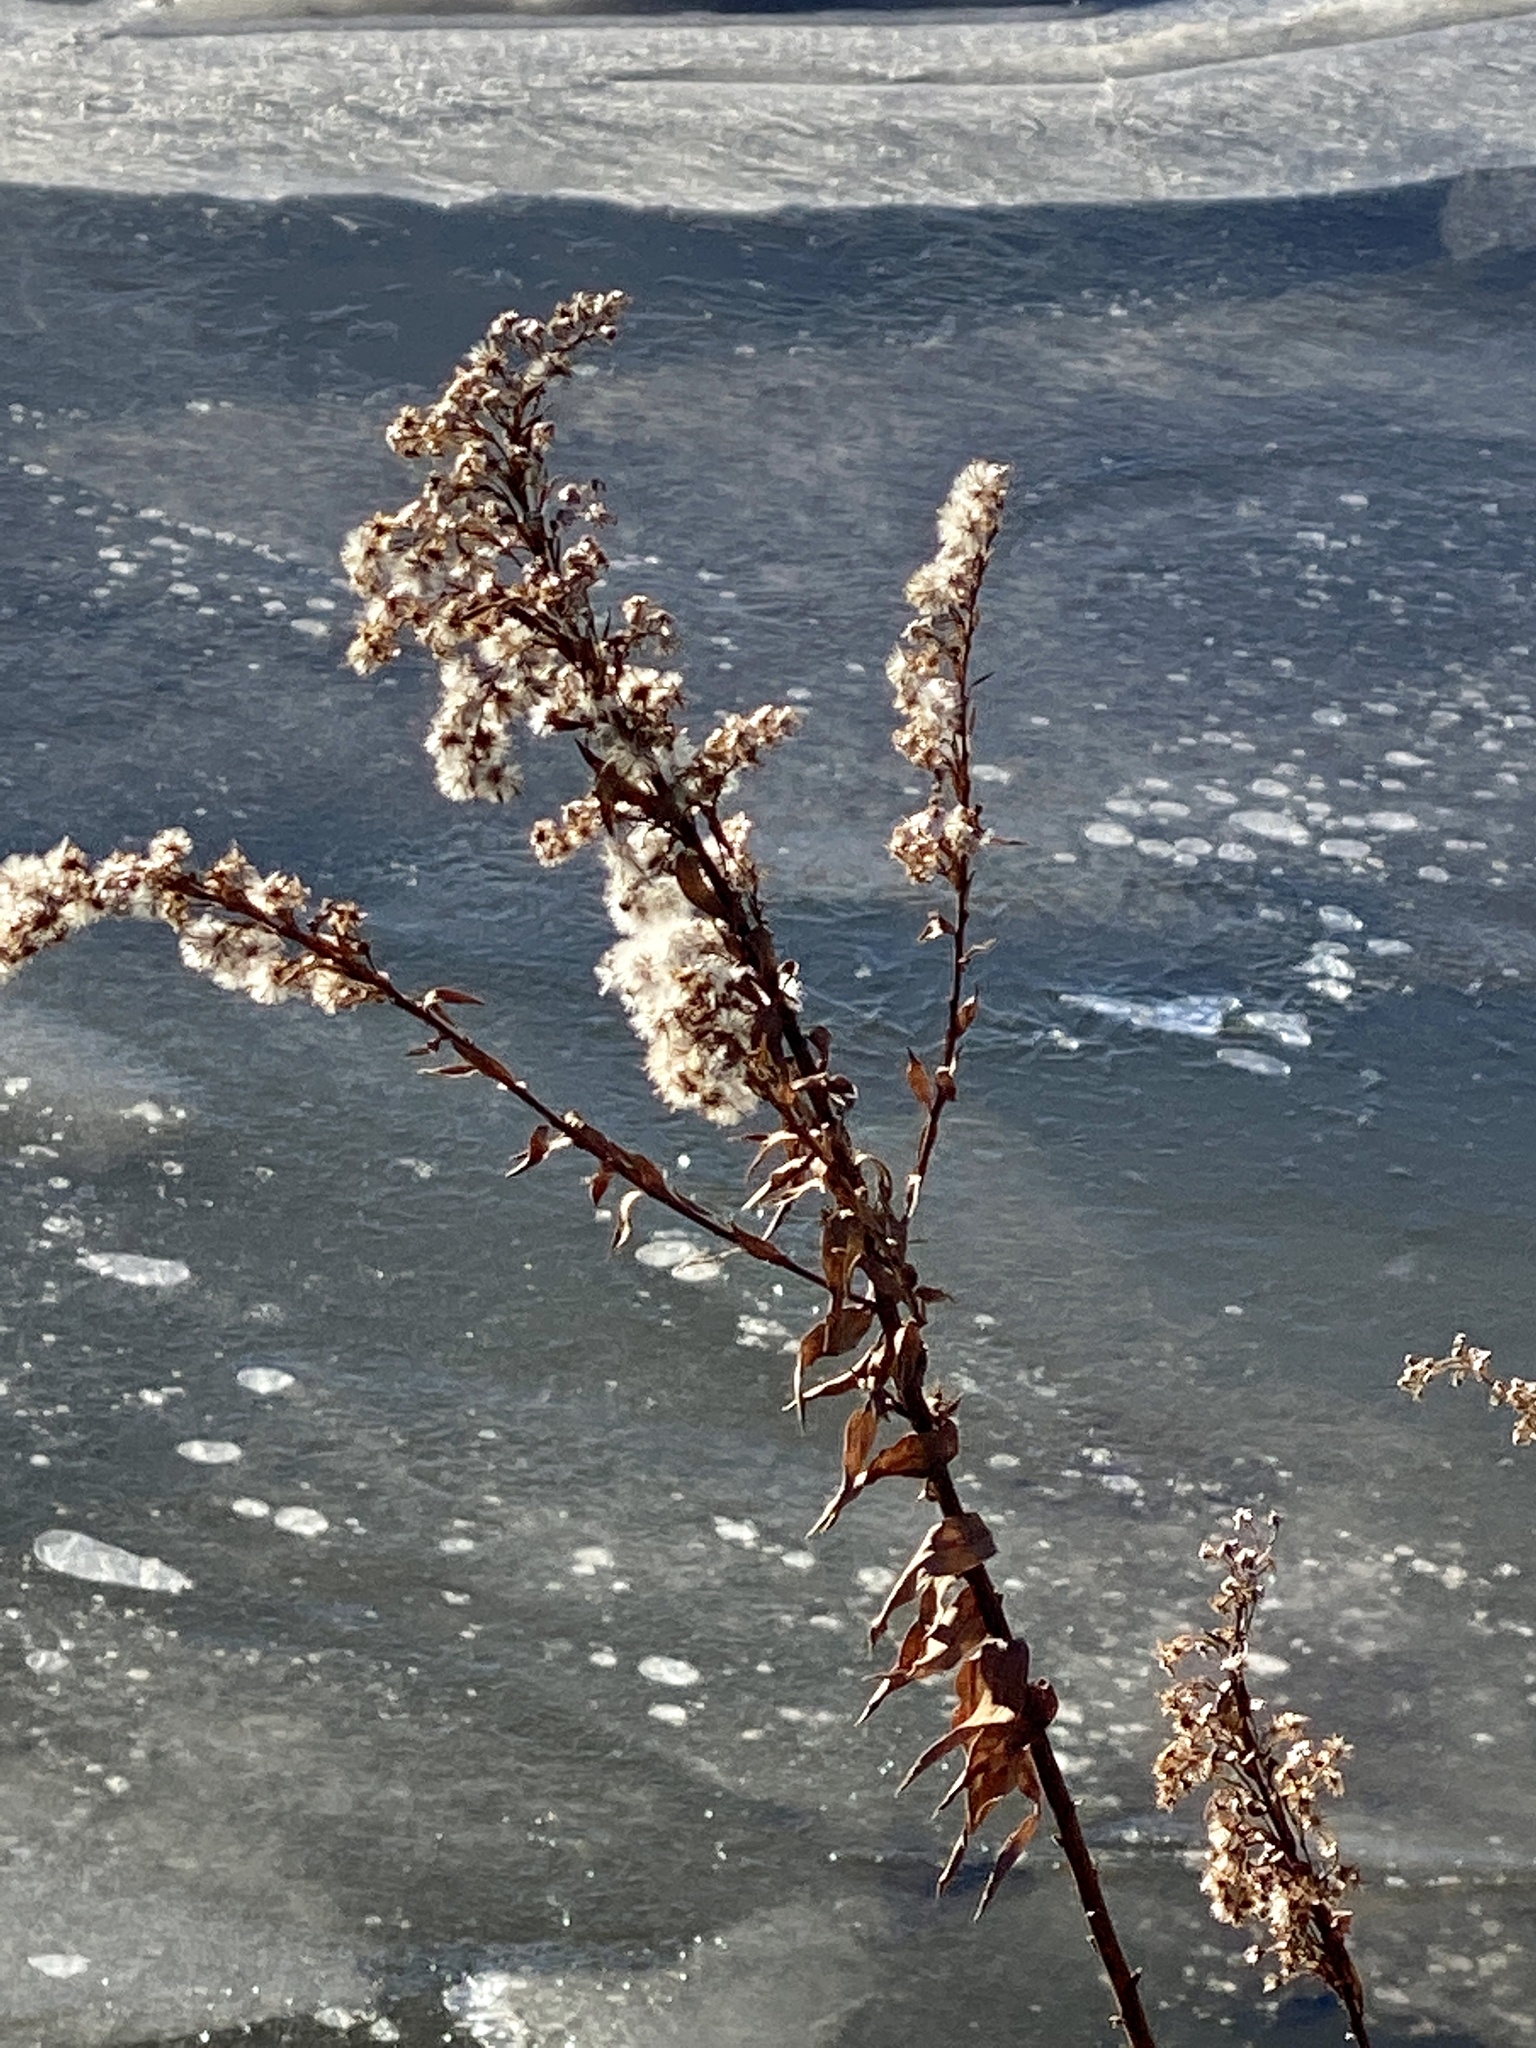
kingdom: Plantae
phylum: Tracheophyta
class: Magnoliopsida
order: Asterales
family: Asteraceae
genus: Solidago
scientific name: Solidago sempervirens
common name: Salt-marsh goldenrod
